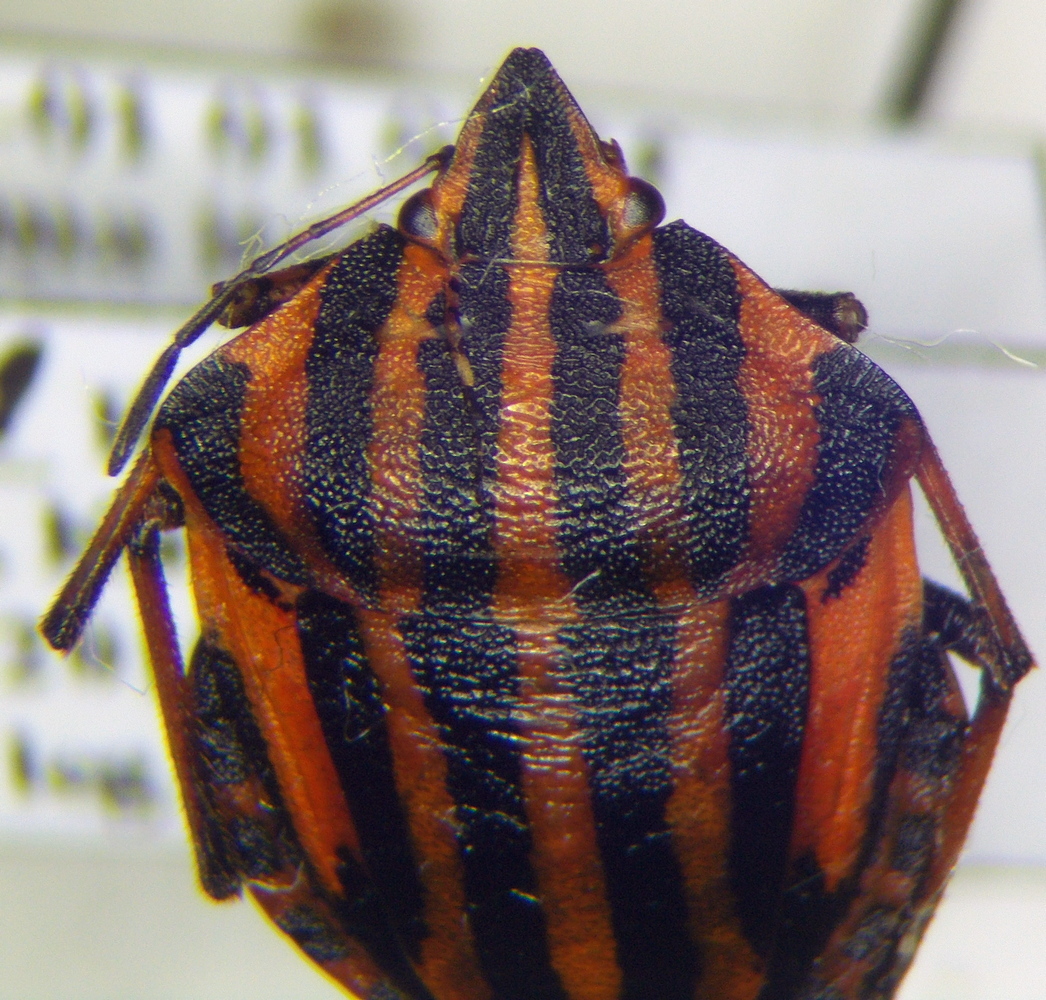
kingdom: Animalia
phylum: Arthropoda
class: Insecta
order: Hemiptera
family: Pentatomidae
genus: Graphosoma
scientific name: Graphosoma italicum
